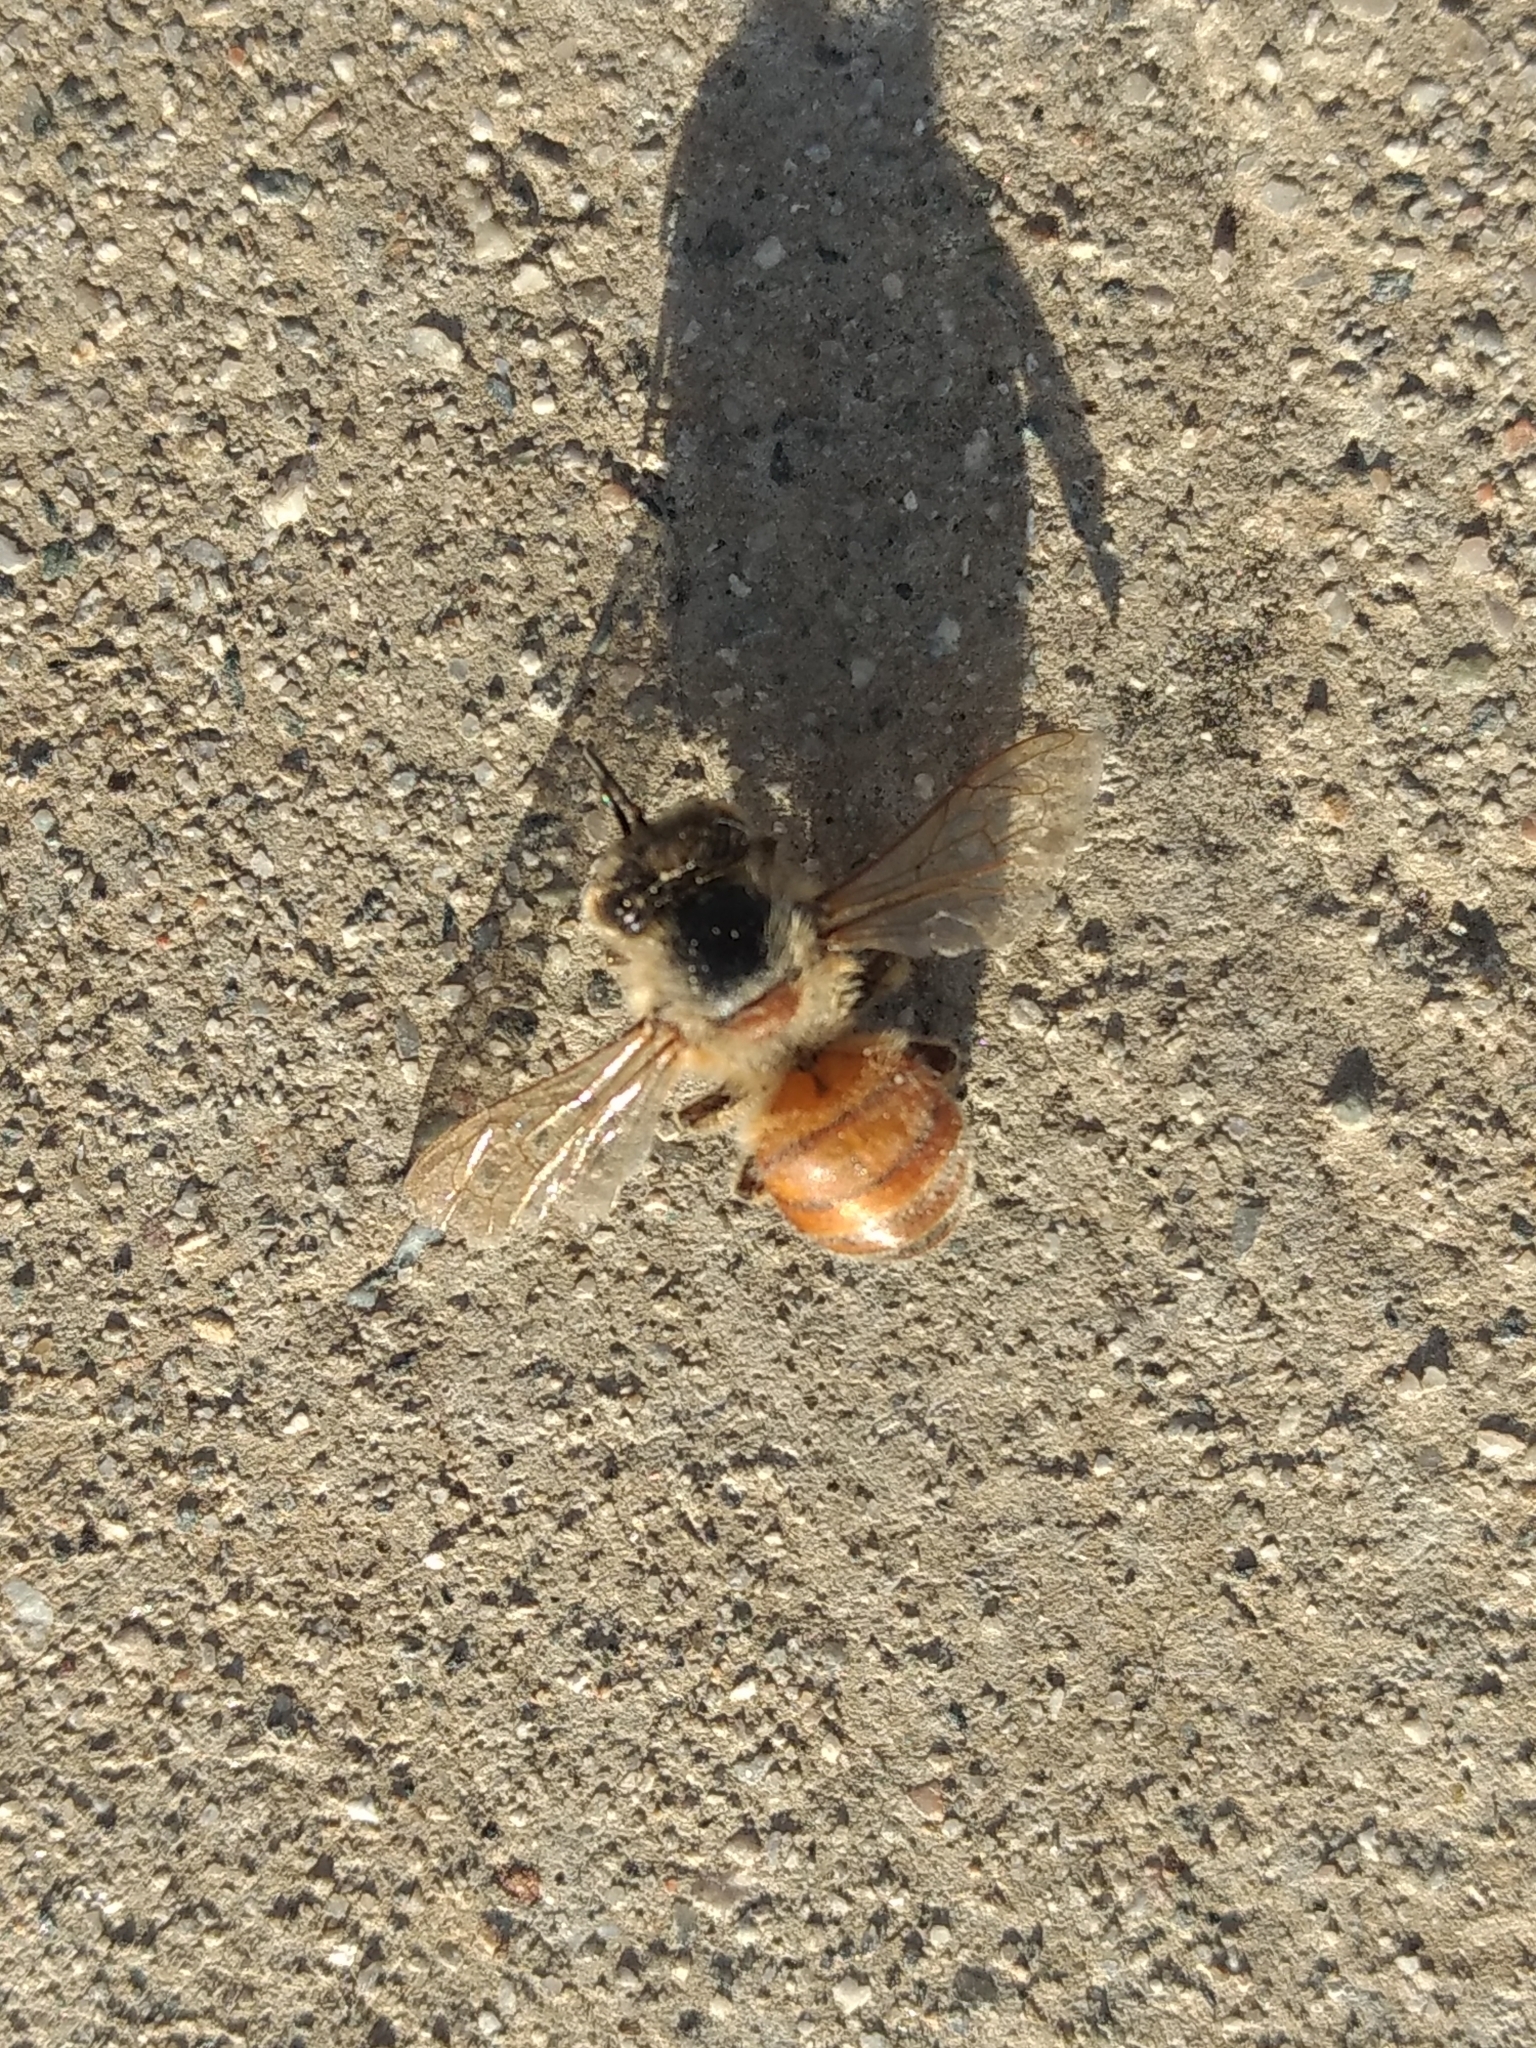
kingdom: Animalia
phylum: Arthropoda
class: Insecta
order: Hymenoptera
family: Apidae
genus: Apis
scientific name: Apis mellifera
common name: Honey bee
